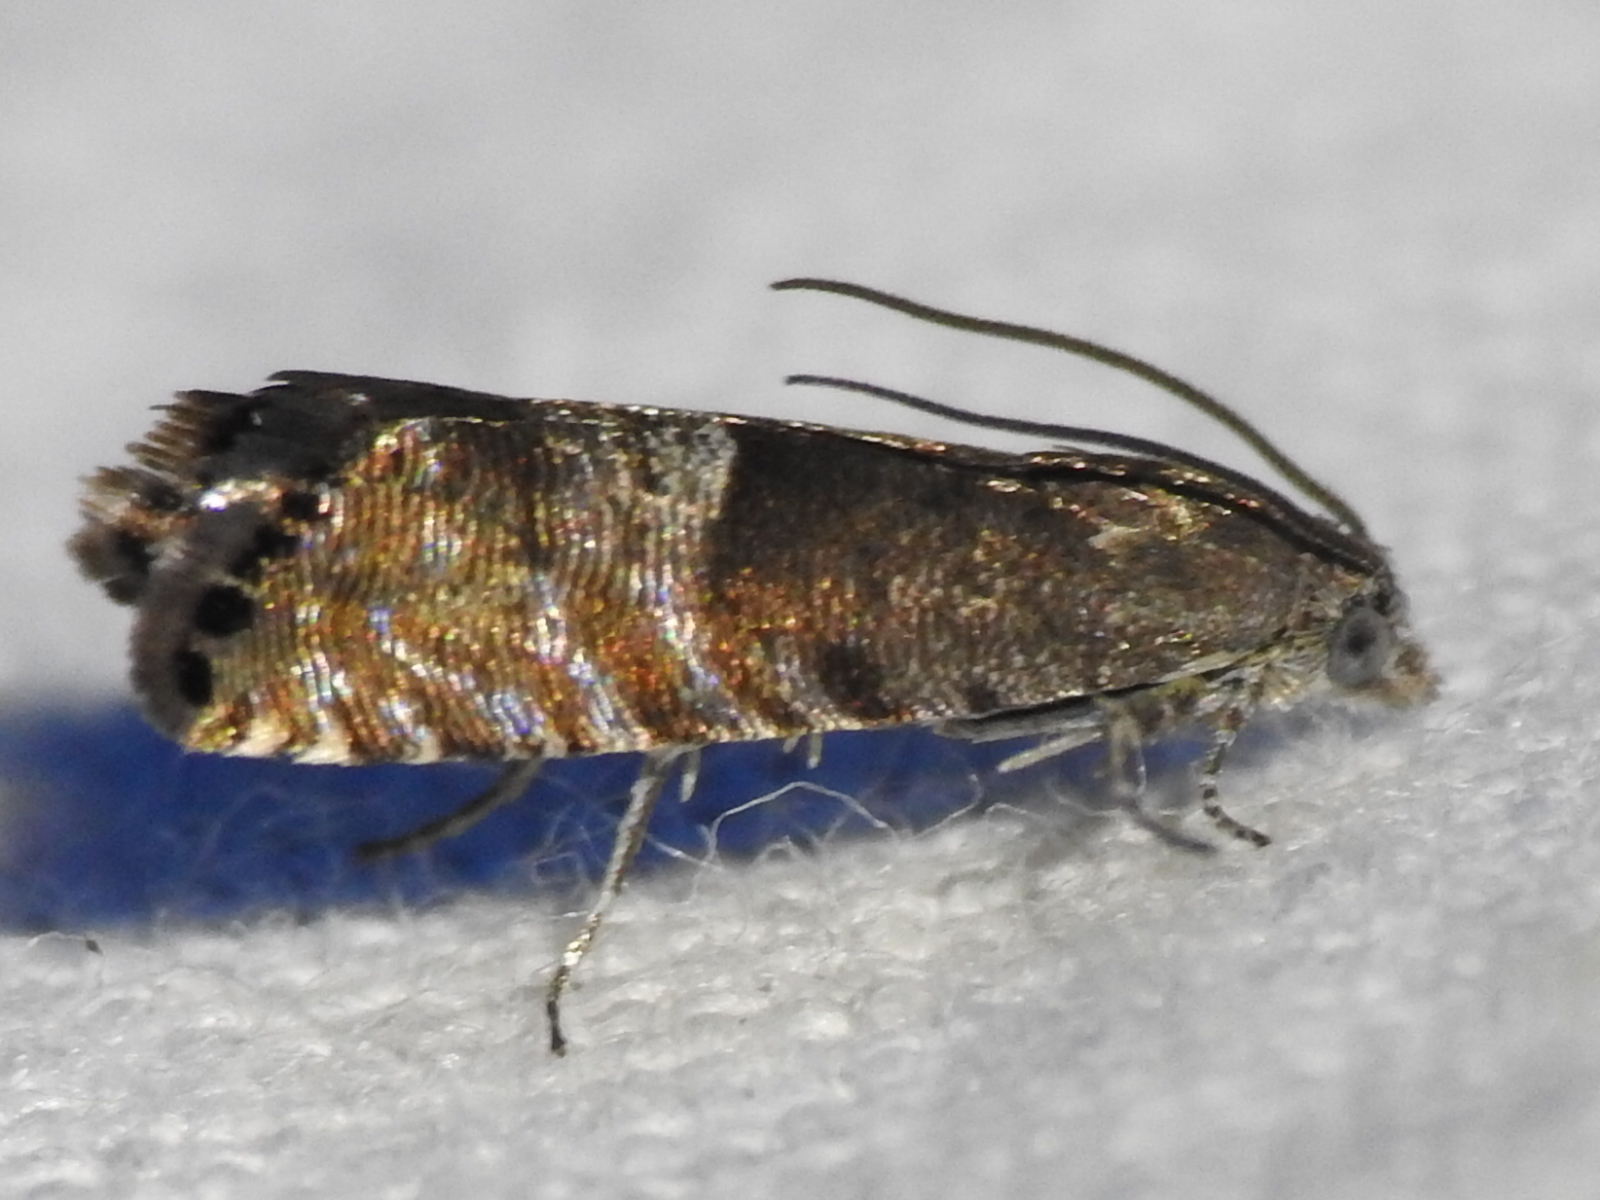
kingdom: Animalia
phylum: Arthropoda
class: Insecta
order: Lepidoptera
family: Tortricidae
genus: Sereda
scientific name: Sereda tautana
